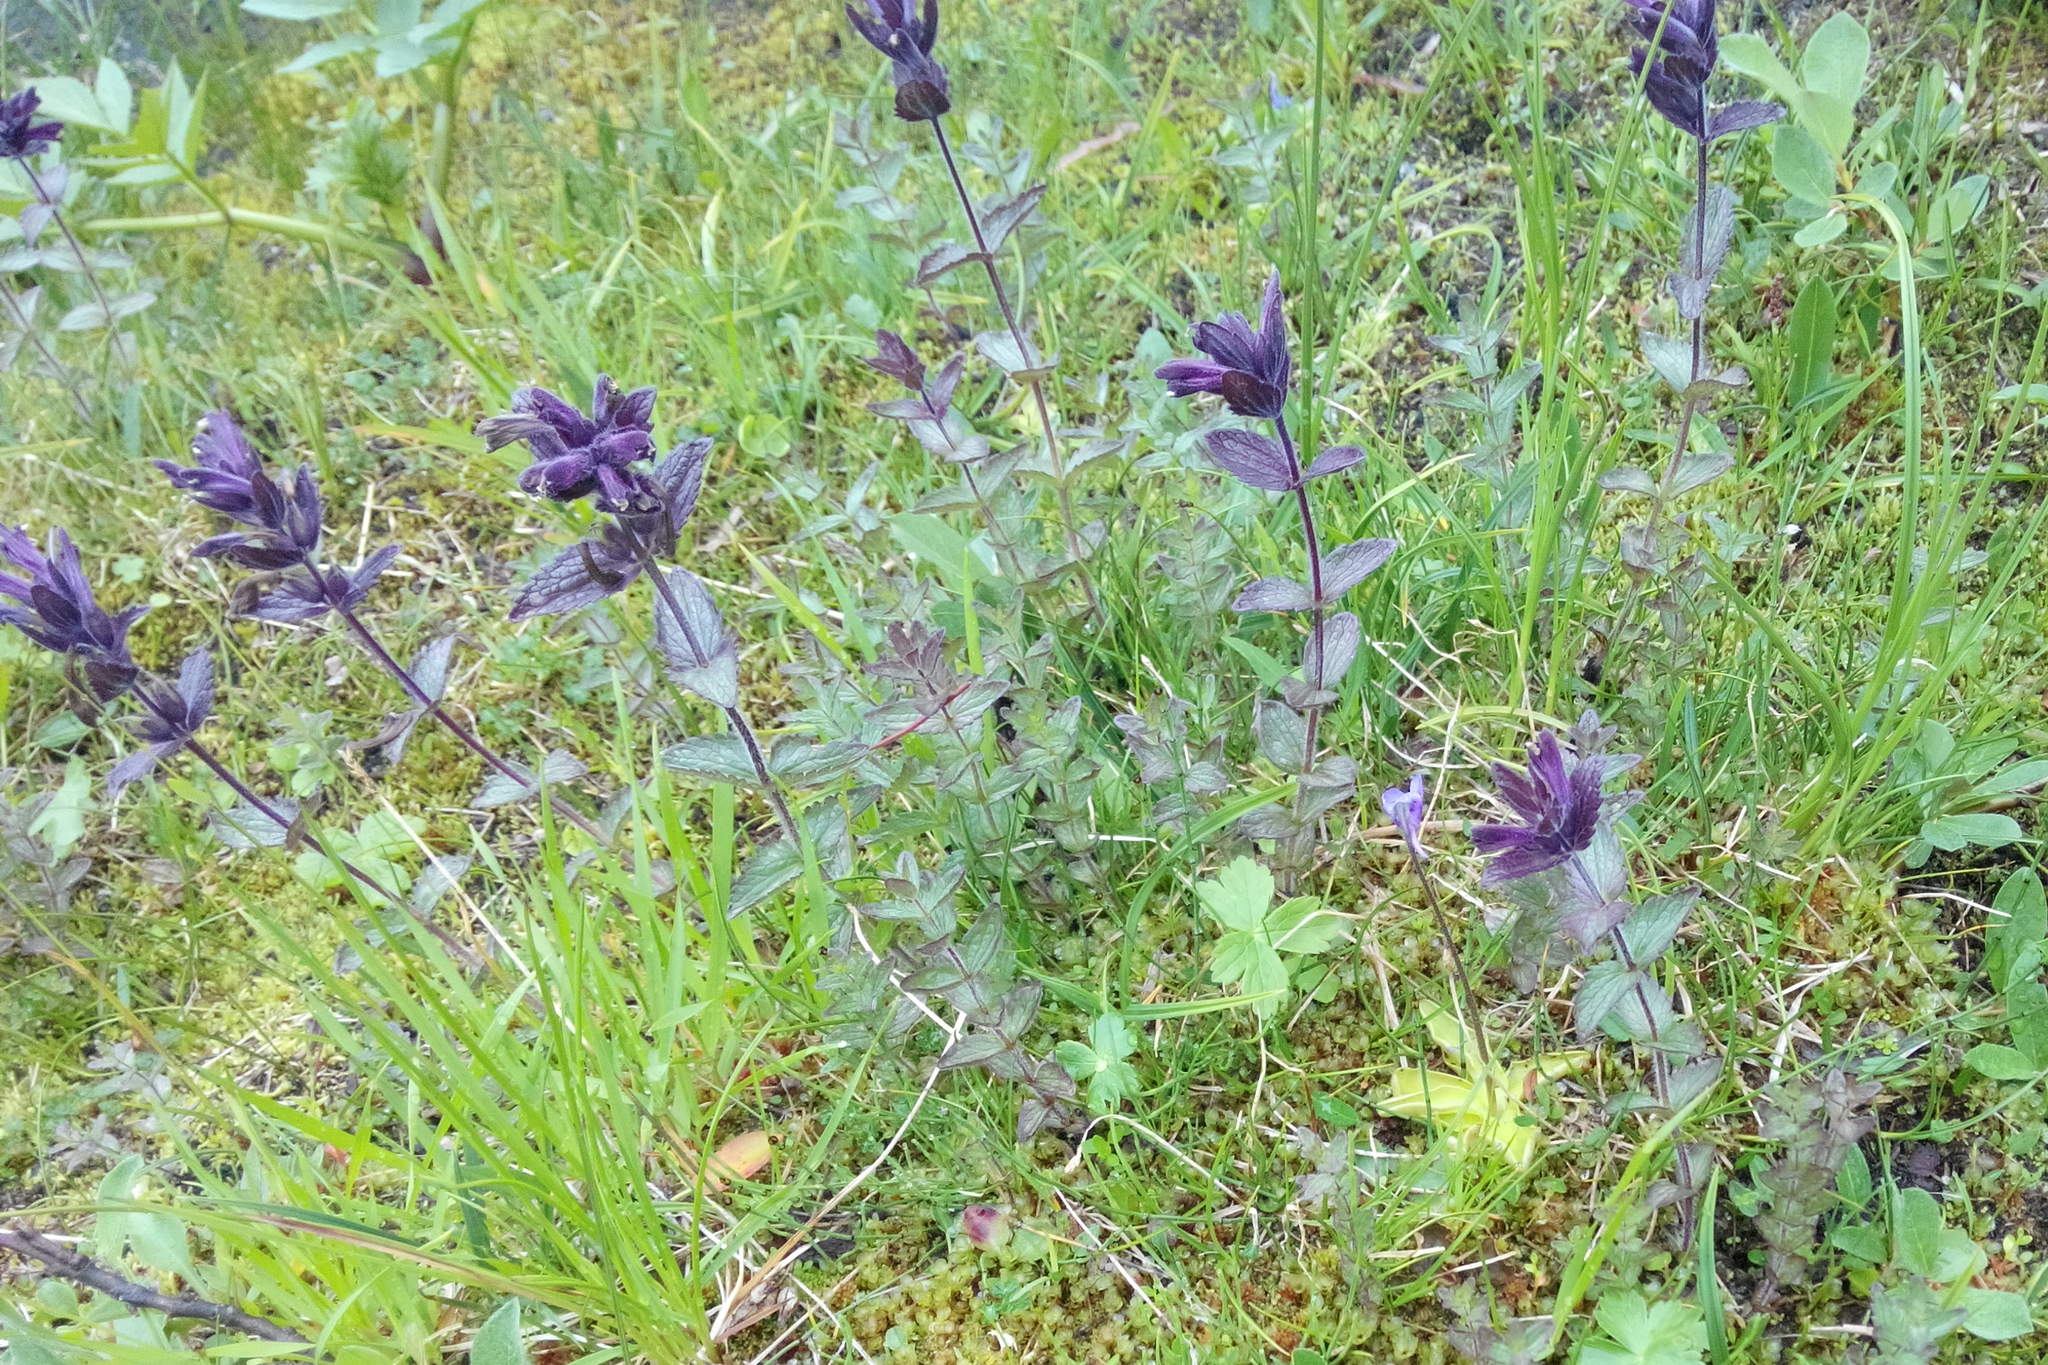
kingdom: Plantae
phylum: Tracheophyta
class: Magnoliopsida
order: Lamiales
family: Orobanchaceae
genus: Bartsia
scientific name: Bartsia alpina
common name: Alpine bartsia
